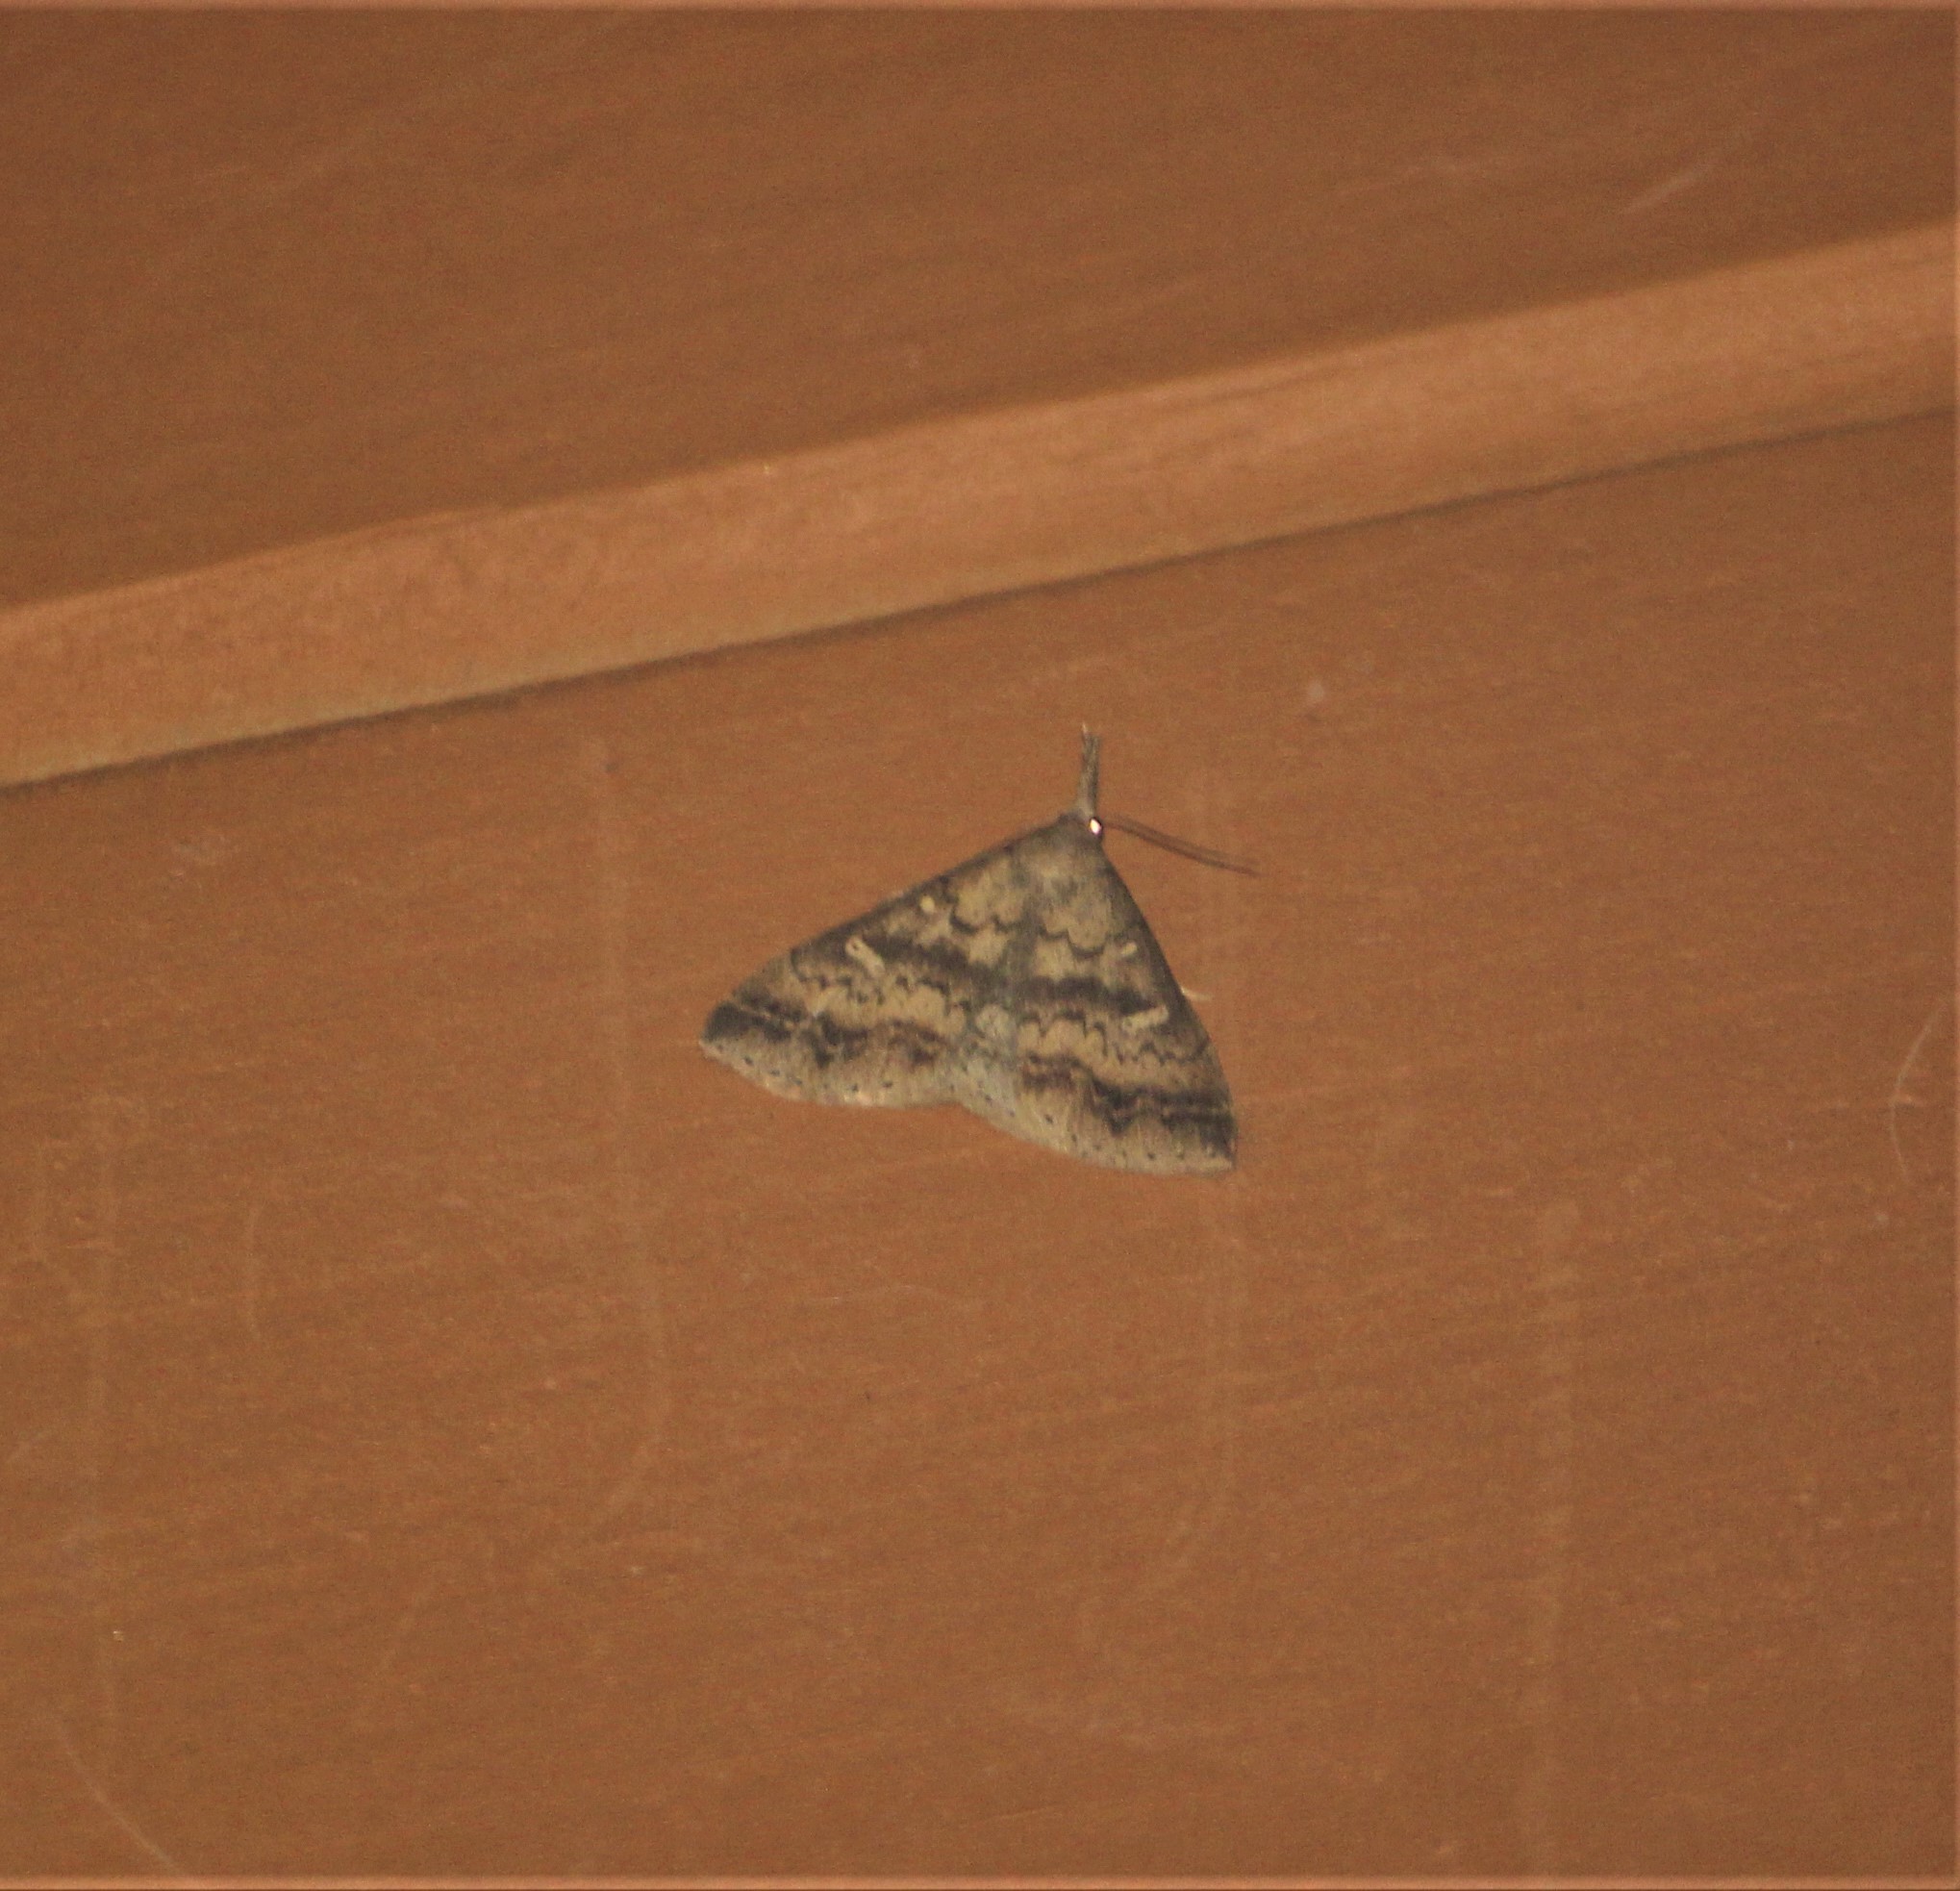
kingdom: Animalia
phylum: Arthropoda
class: Insecta
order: Lepidoptera
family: Erebidae
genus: Renia
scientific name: Renia discoloralis
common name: Discolored renia moth
